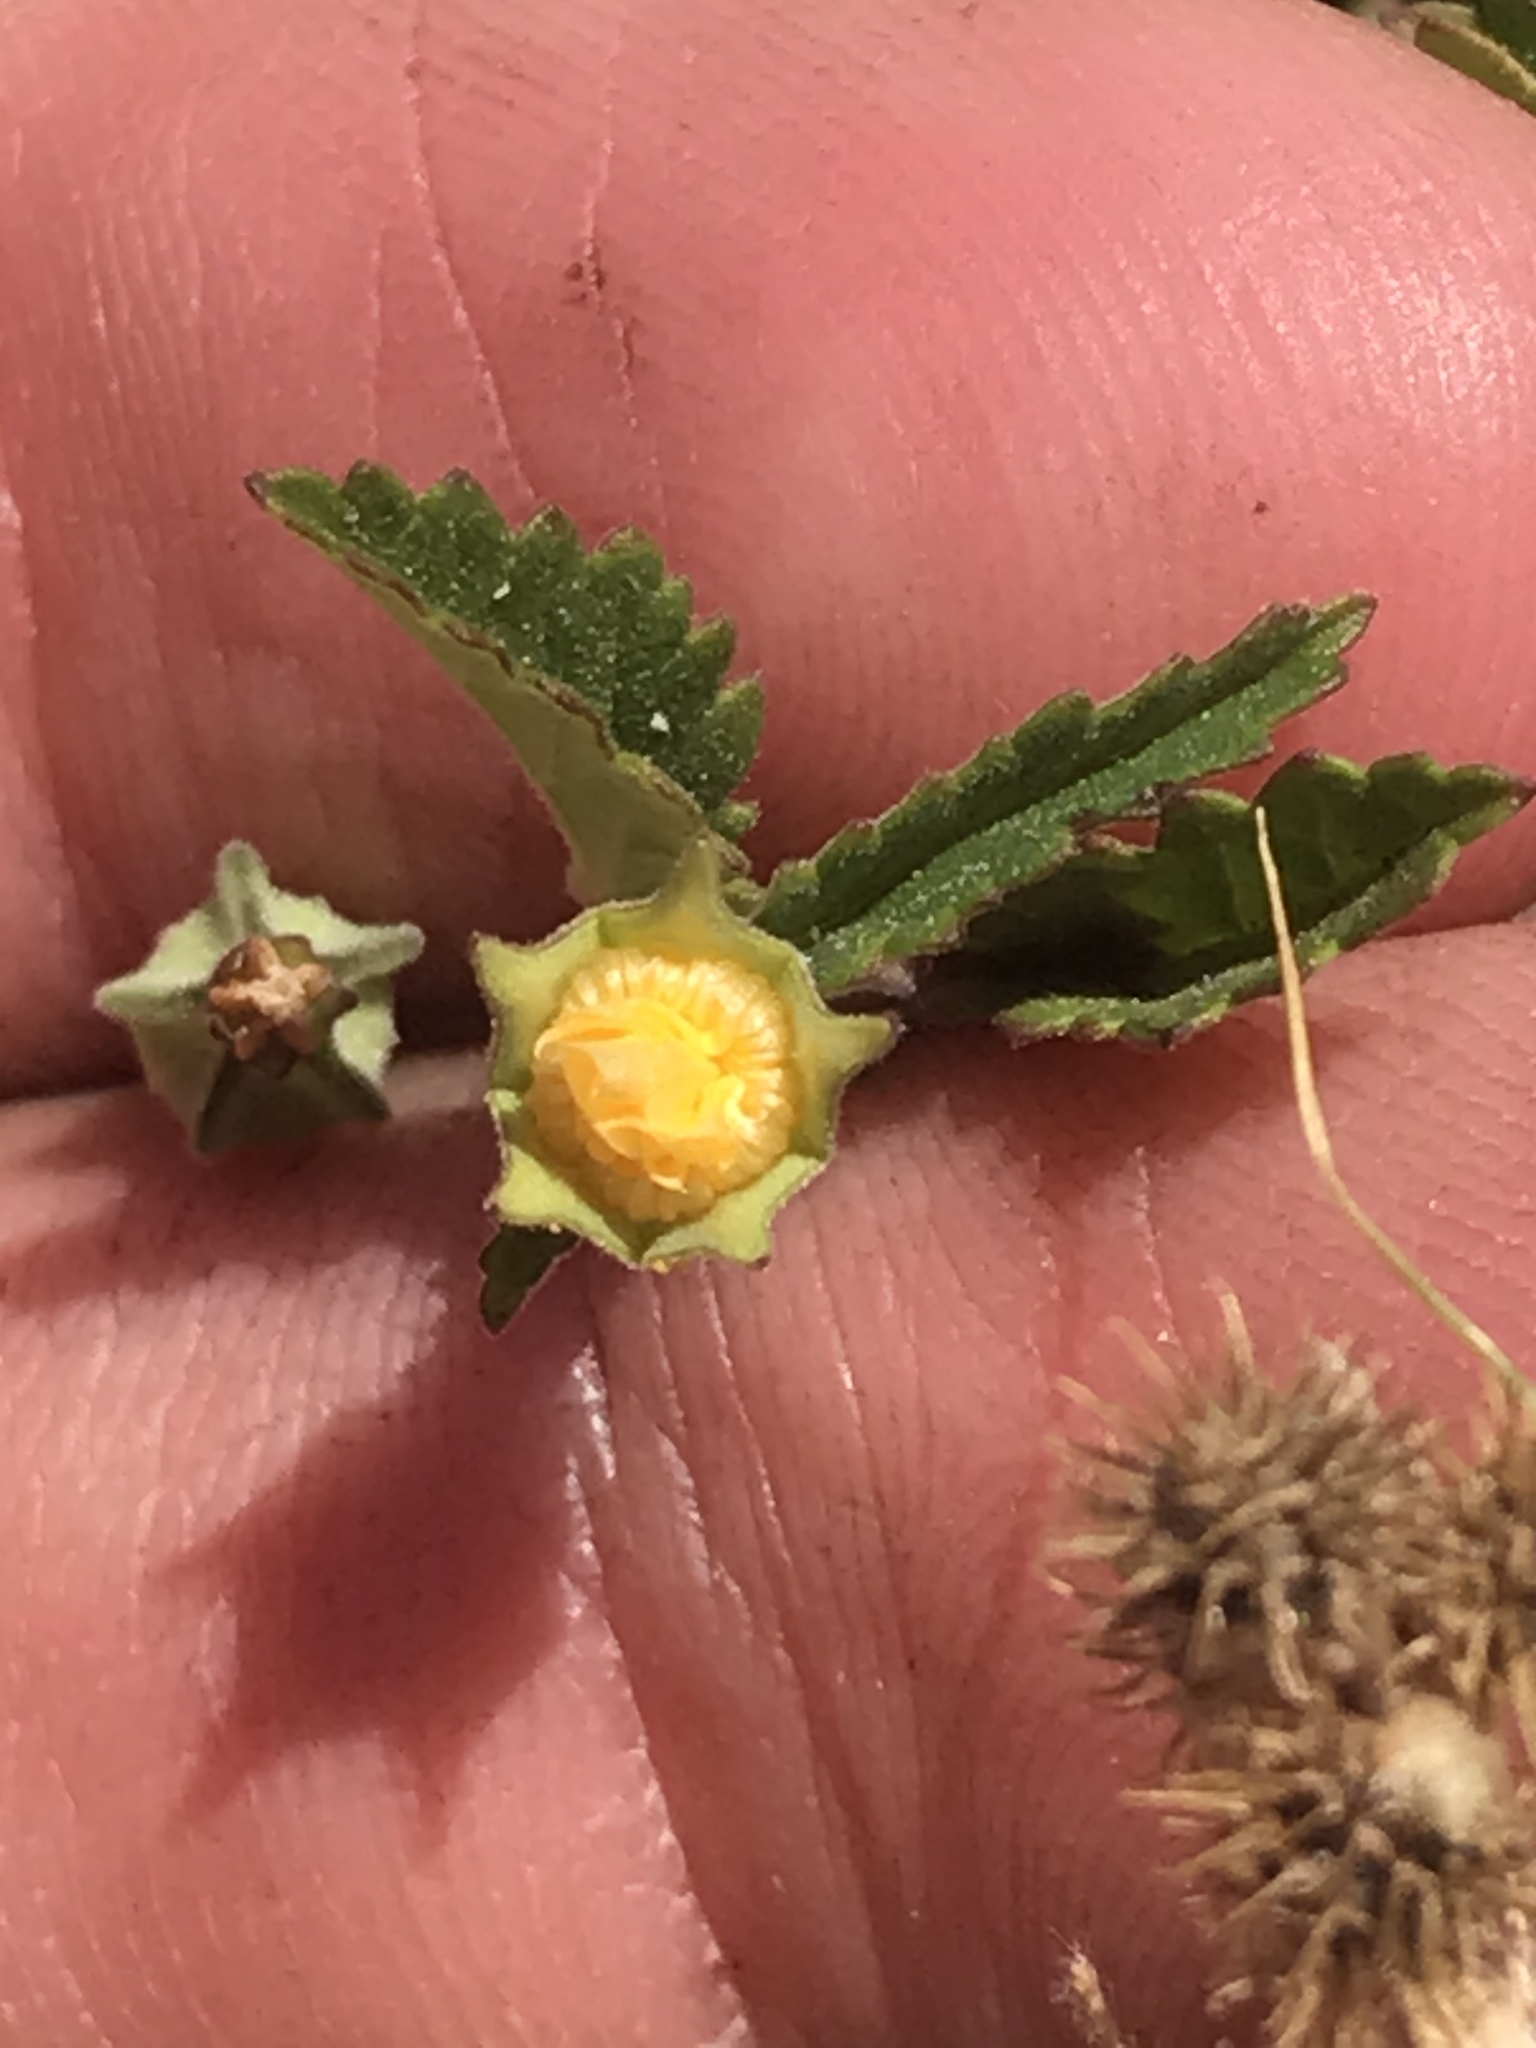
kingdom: Plantae
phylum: Tracheophyta
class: Magnoliopsida
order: Malvales
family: Malvaceae
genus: Sida
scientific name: Sida abutilifolia
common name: Spreading fanpetals
